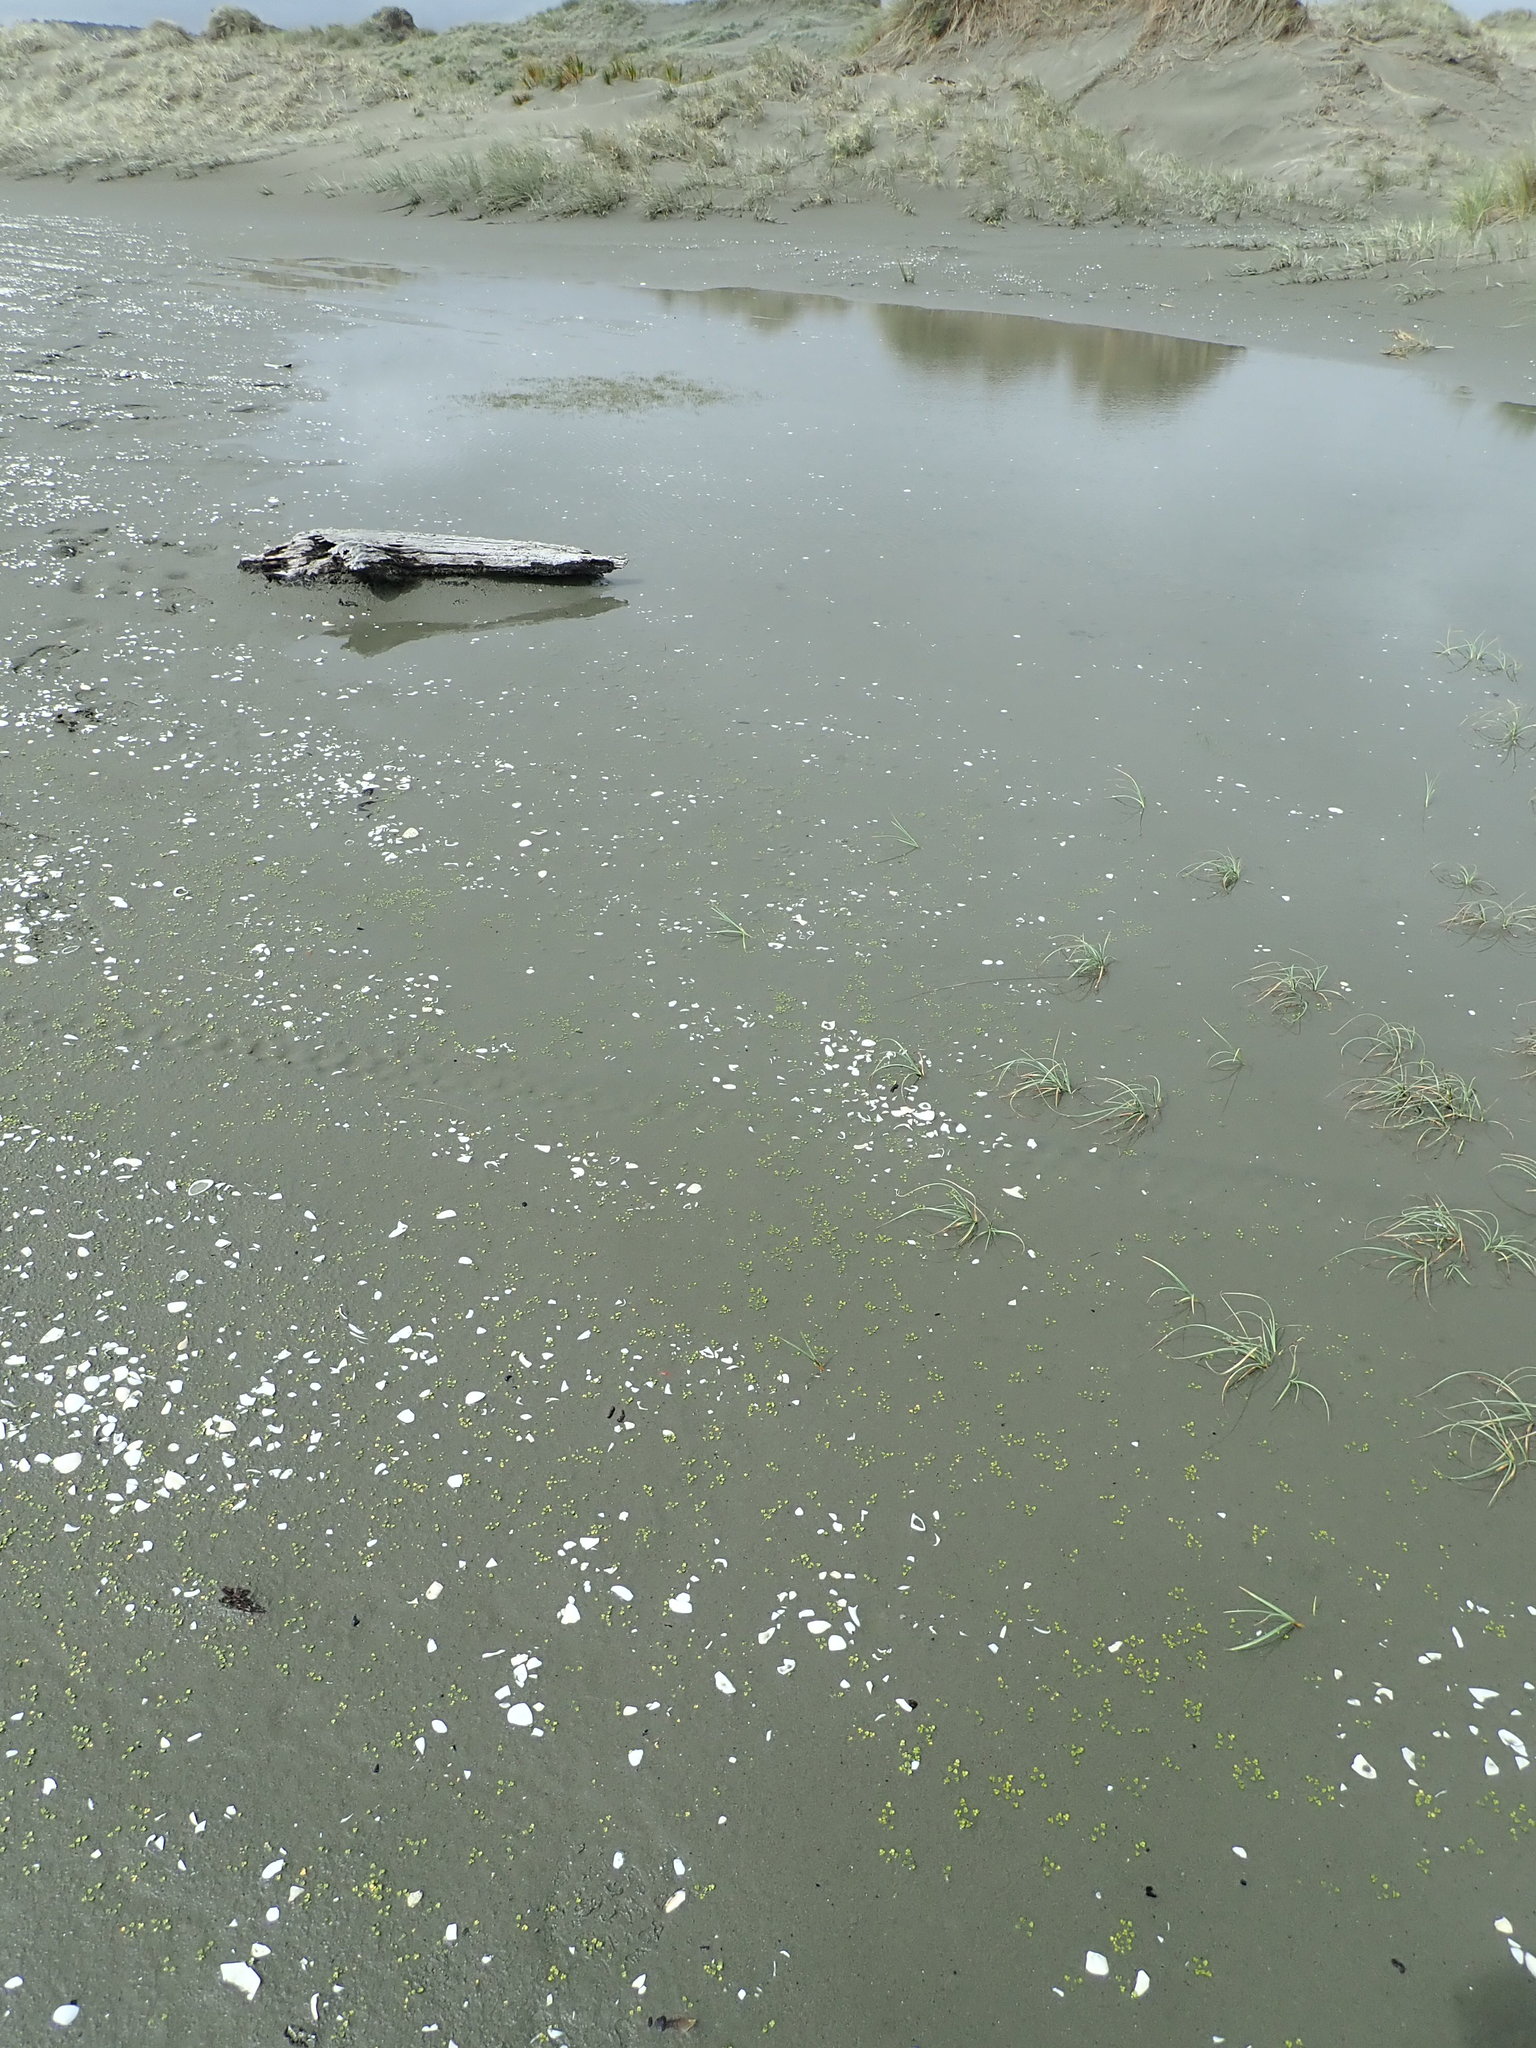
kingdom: Plantae
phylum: Tracheophyta
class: Magnoliopsida
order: Ranunculales
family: Ranunculaceae
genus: Ranunculus
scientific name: Ranunculus acaulis
